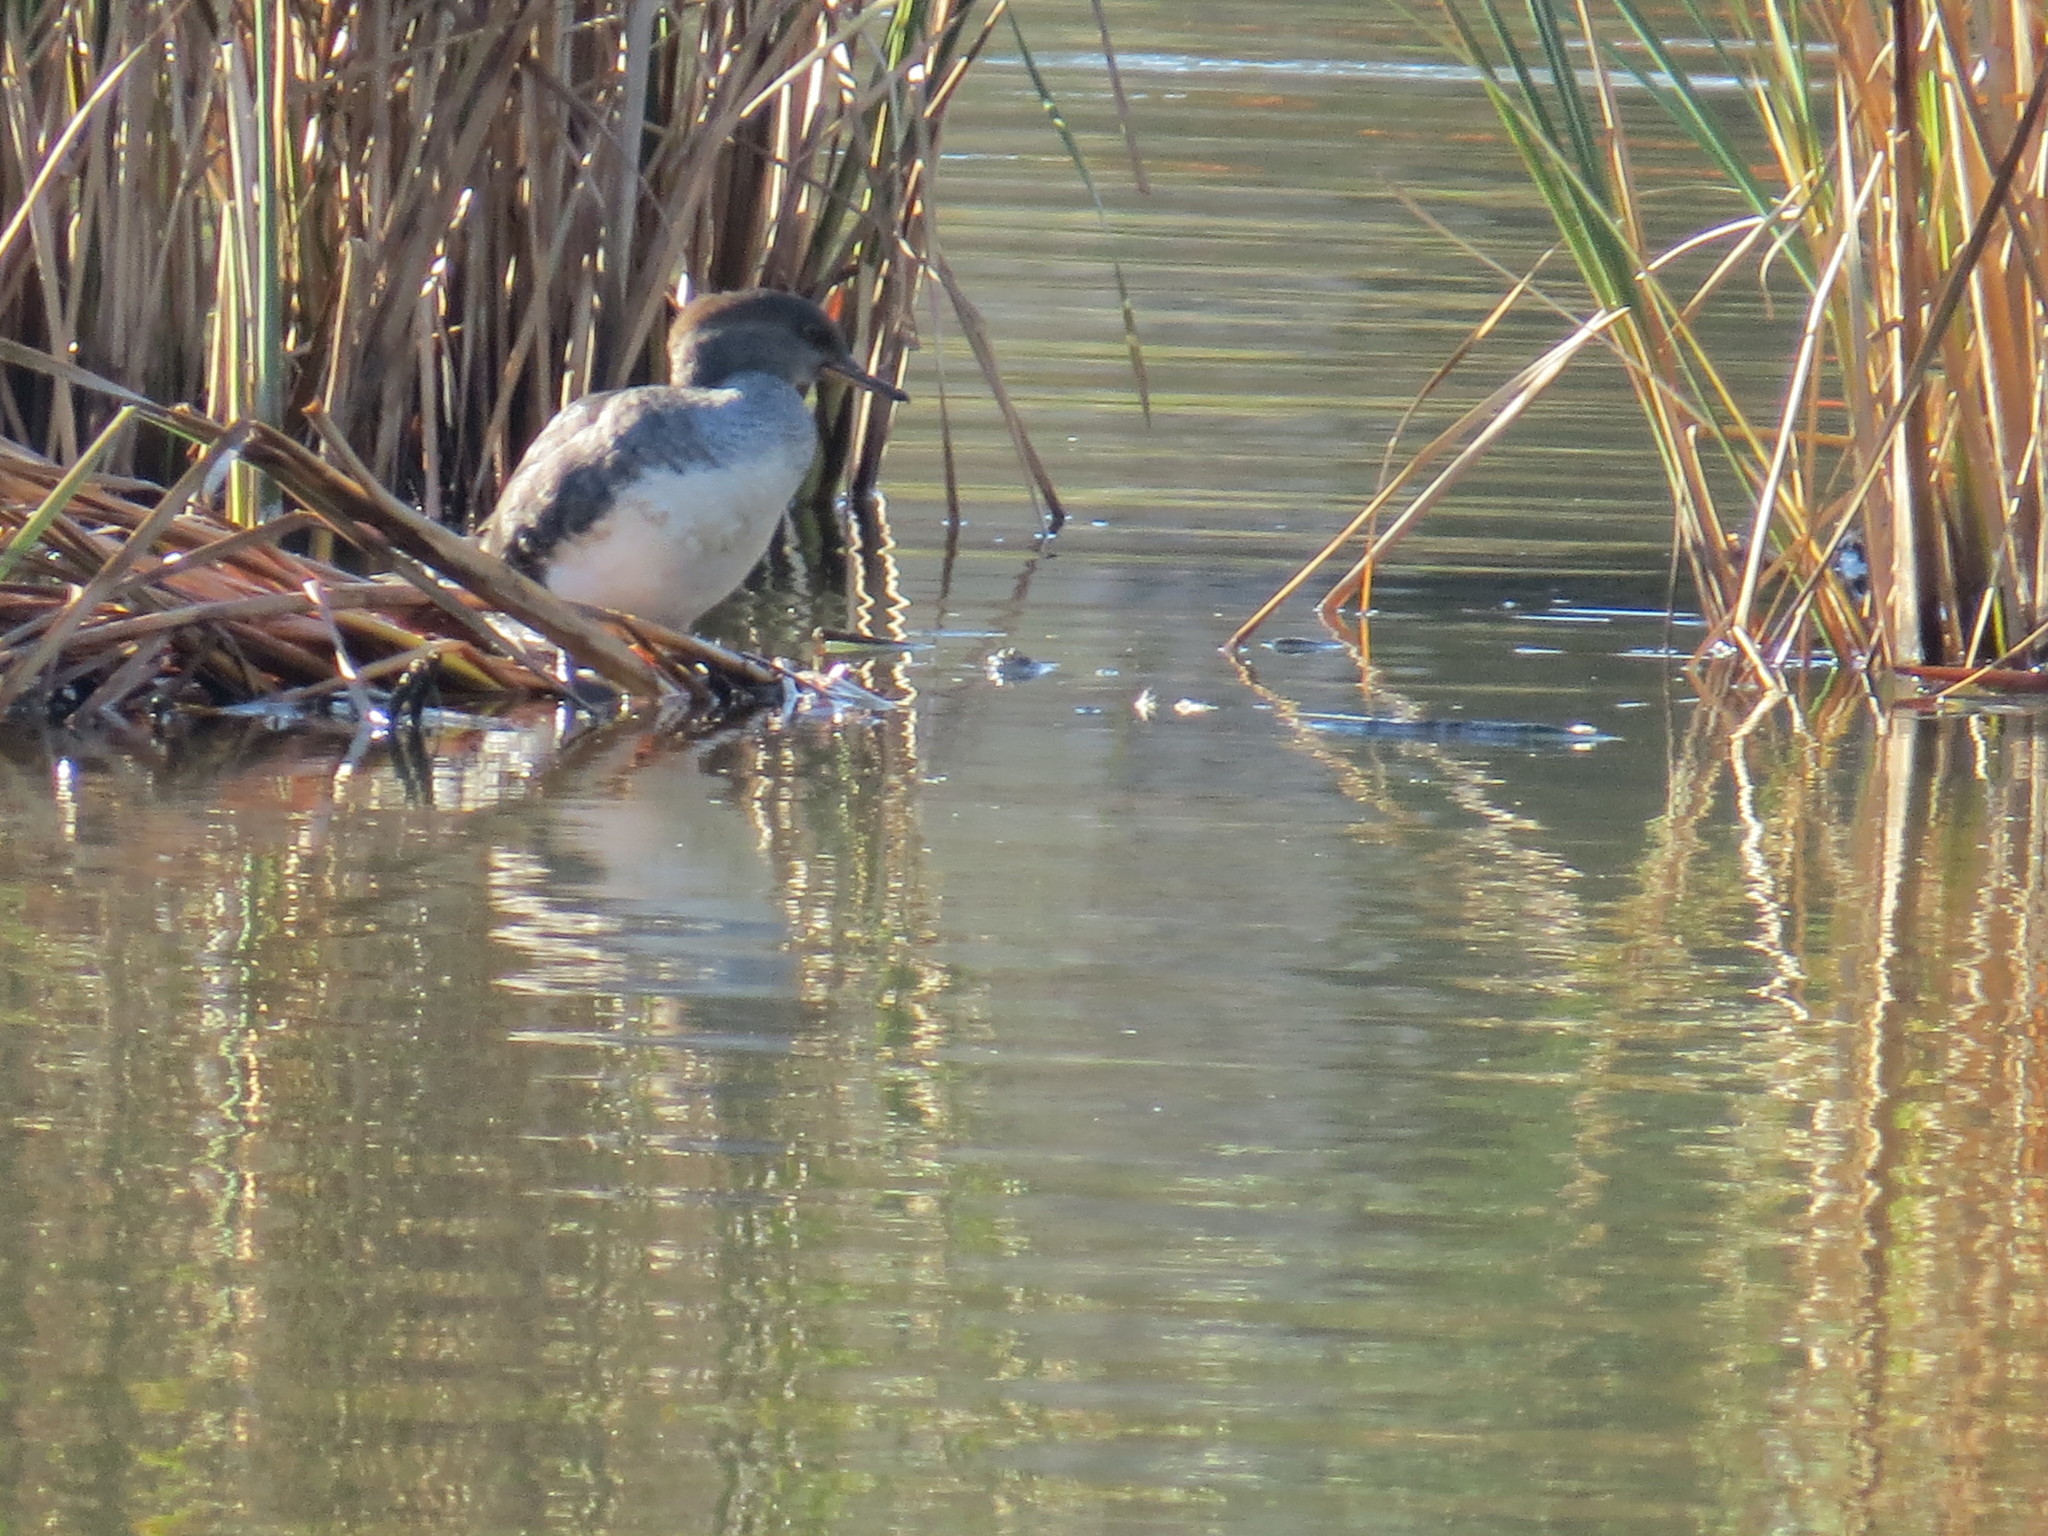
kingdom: Animalia
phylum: Chordata
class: Aves
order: Anseriformes
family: Anatidae
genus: Mergus
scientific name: Mergus merganser
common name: Common merganser
